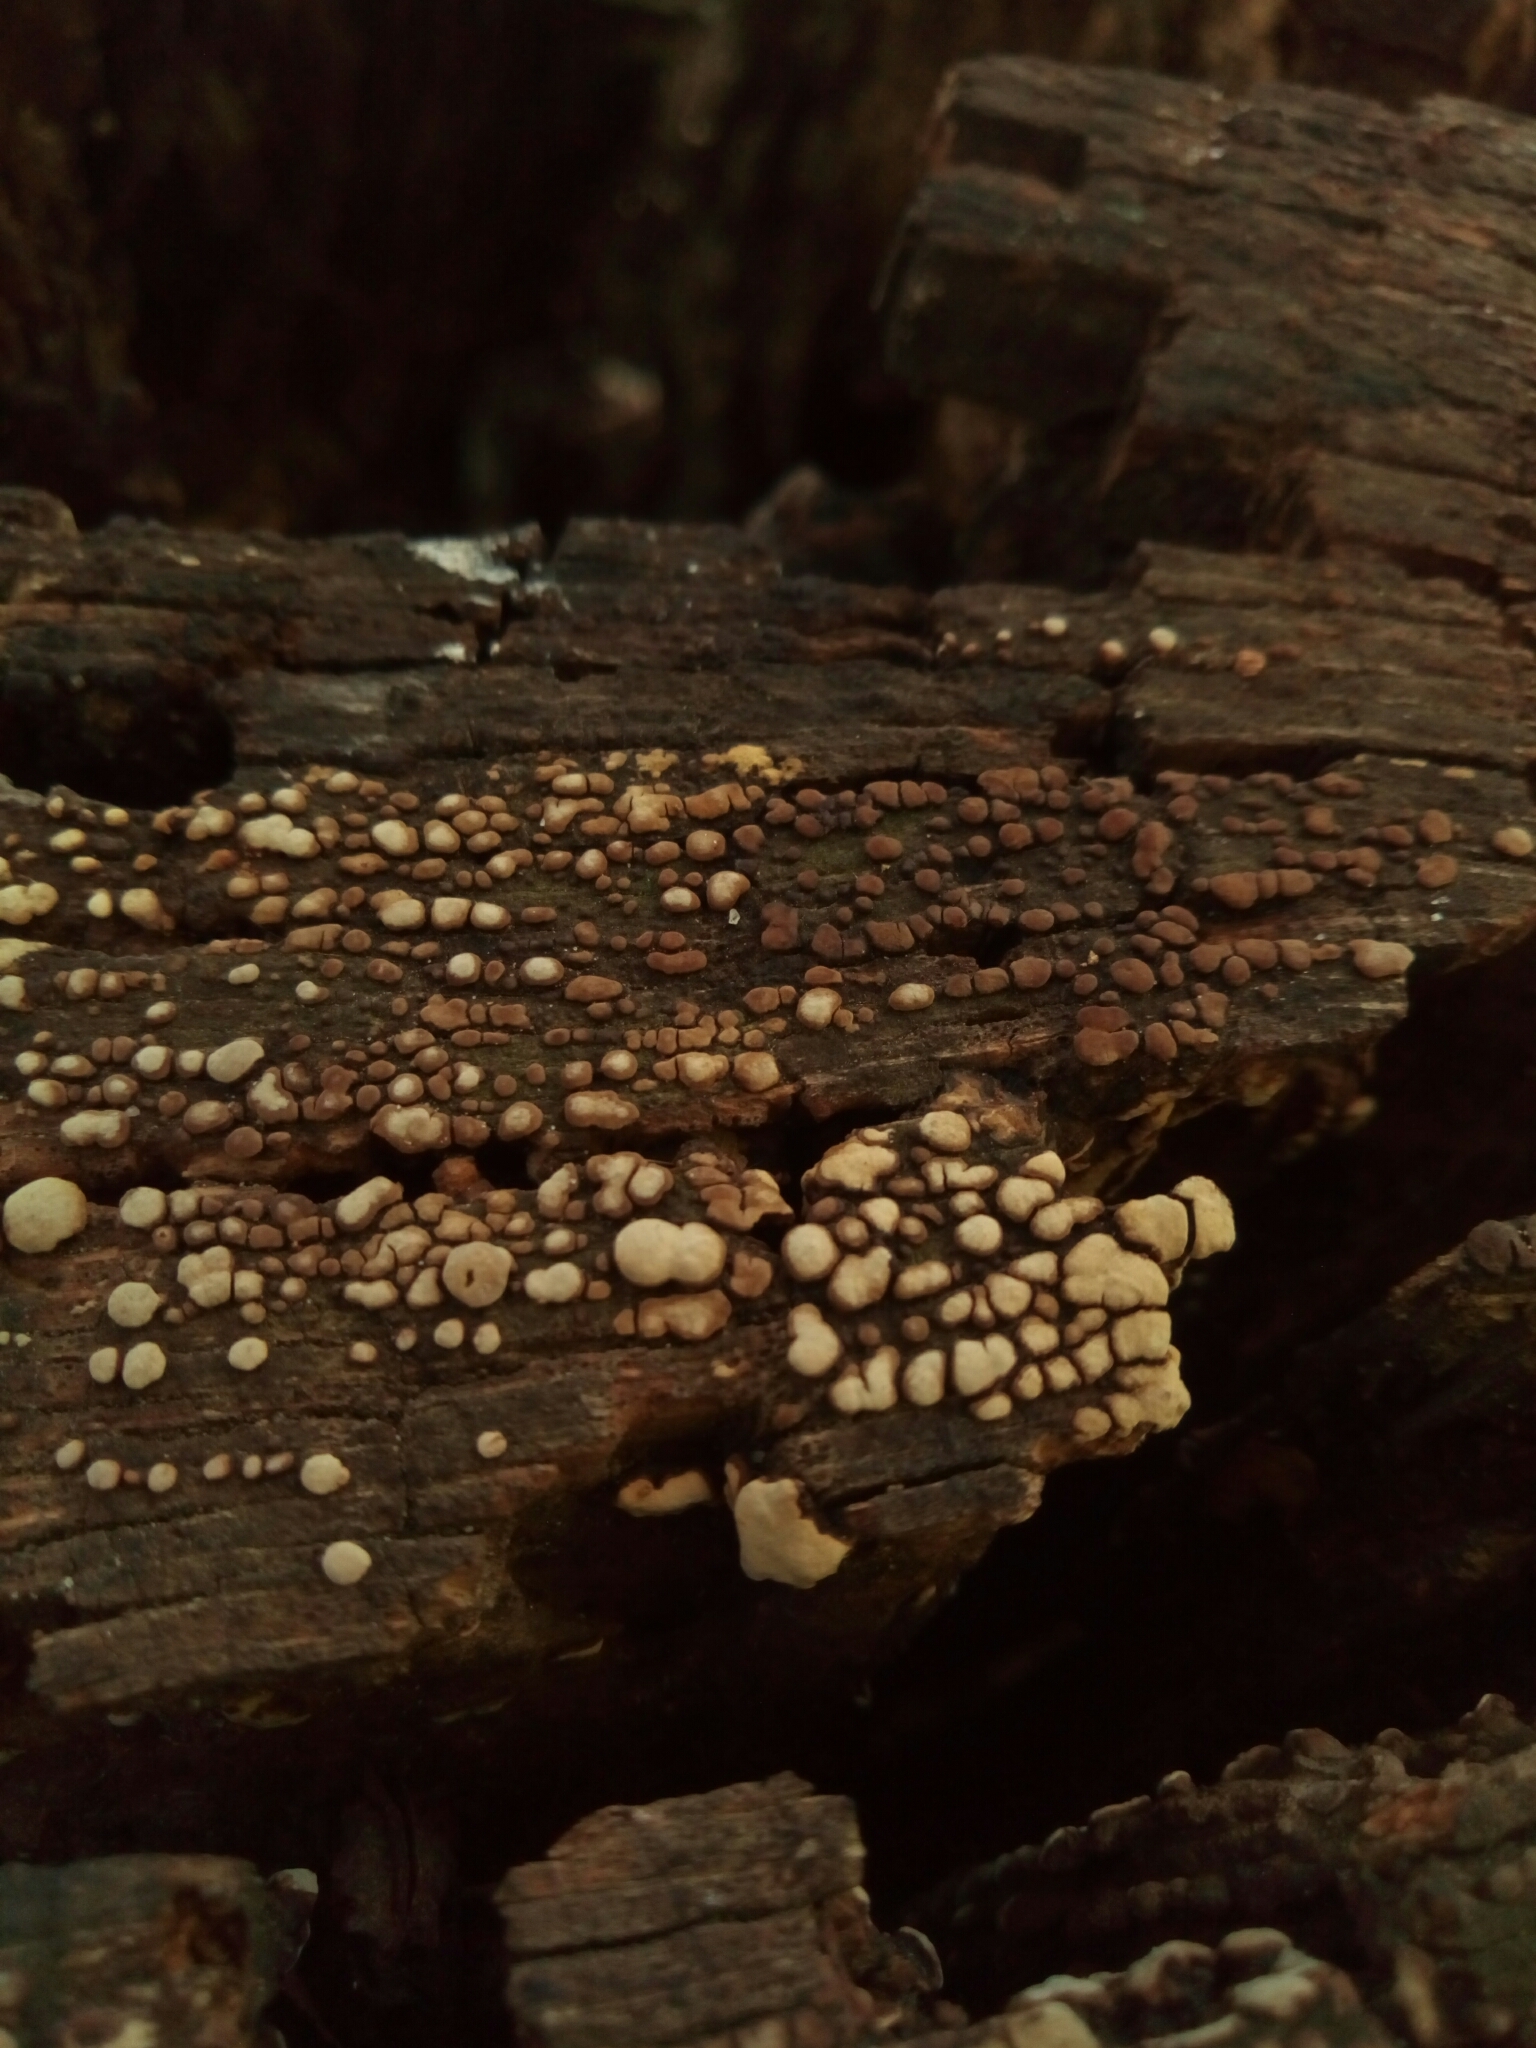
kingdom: Fungi
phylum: Basidiomycota
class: Agaricomycetes
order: Russulales
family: Stereaceae
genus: Xylobolus
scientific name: Xylobolus frustulatus
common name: Ceramic parchment
